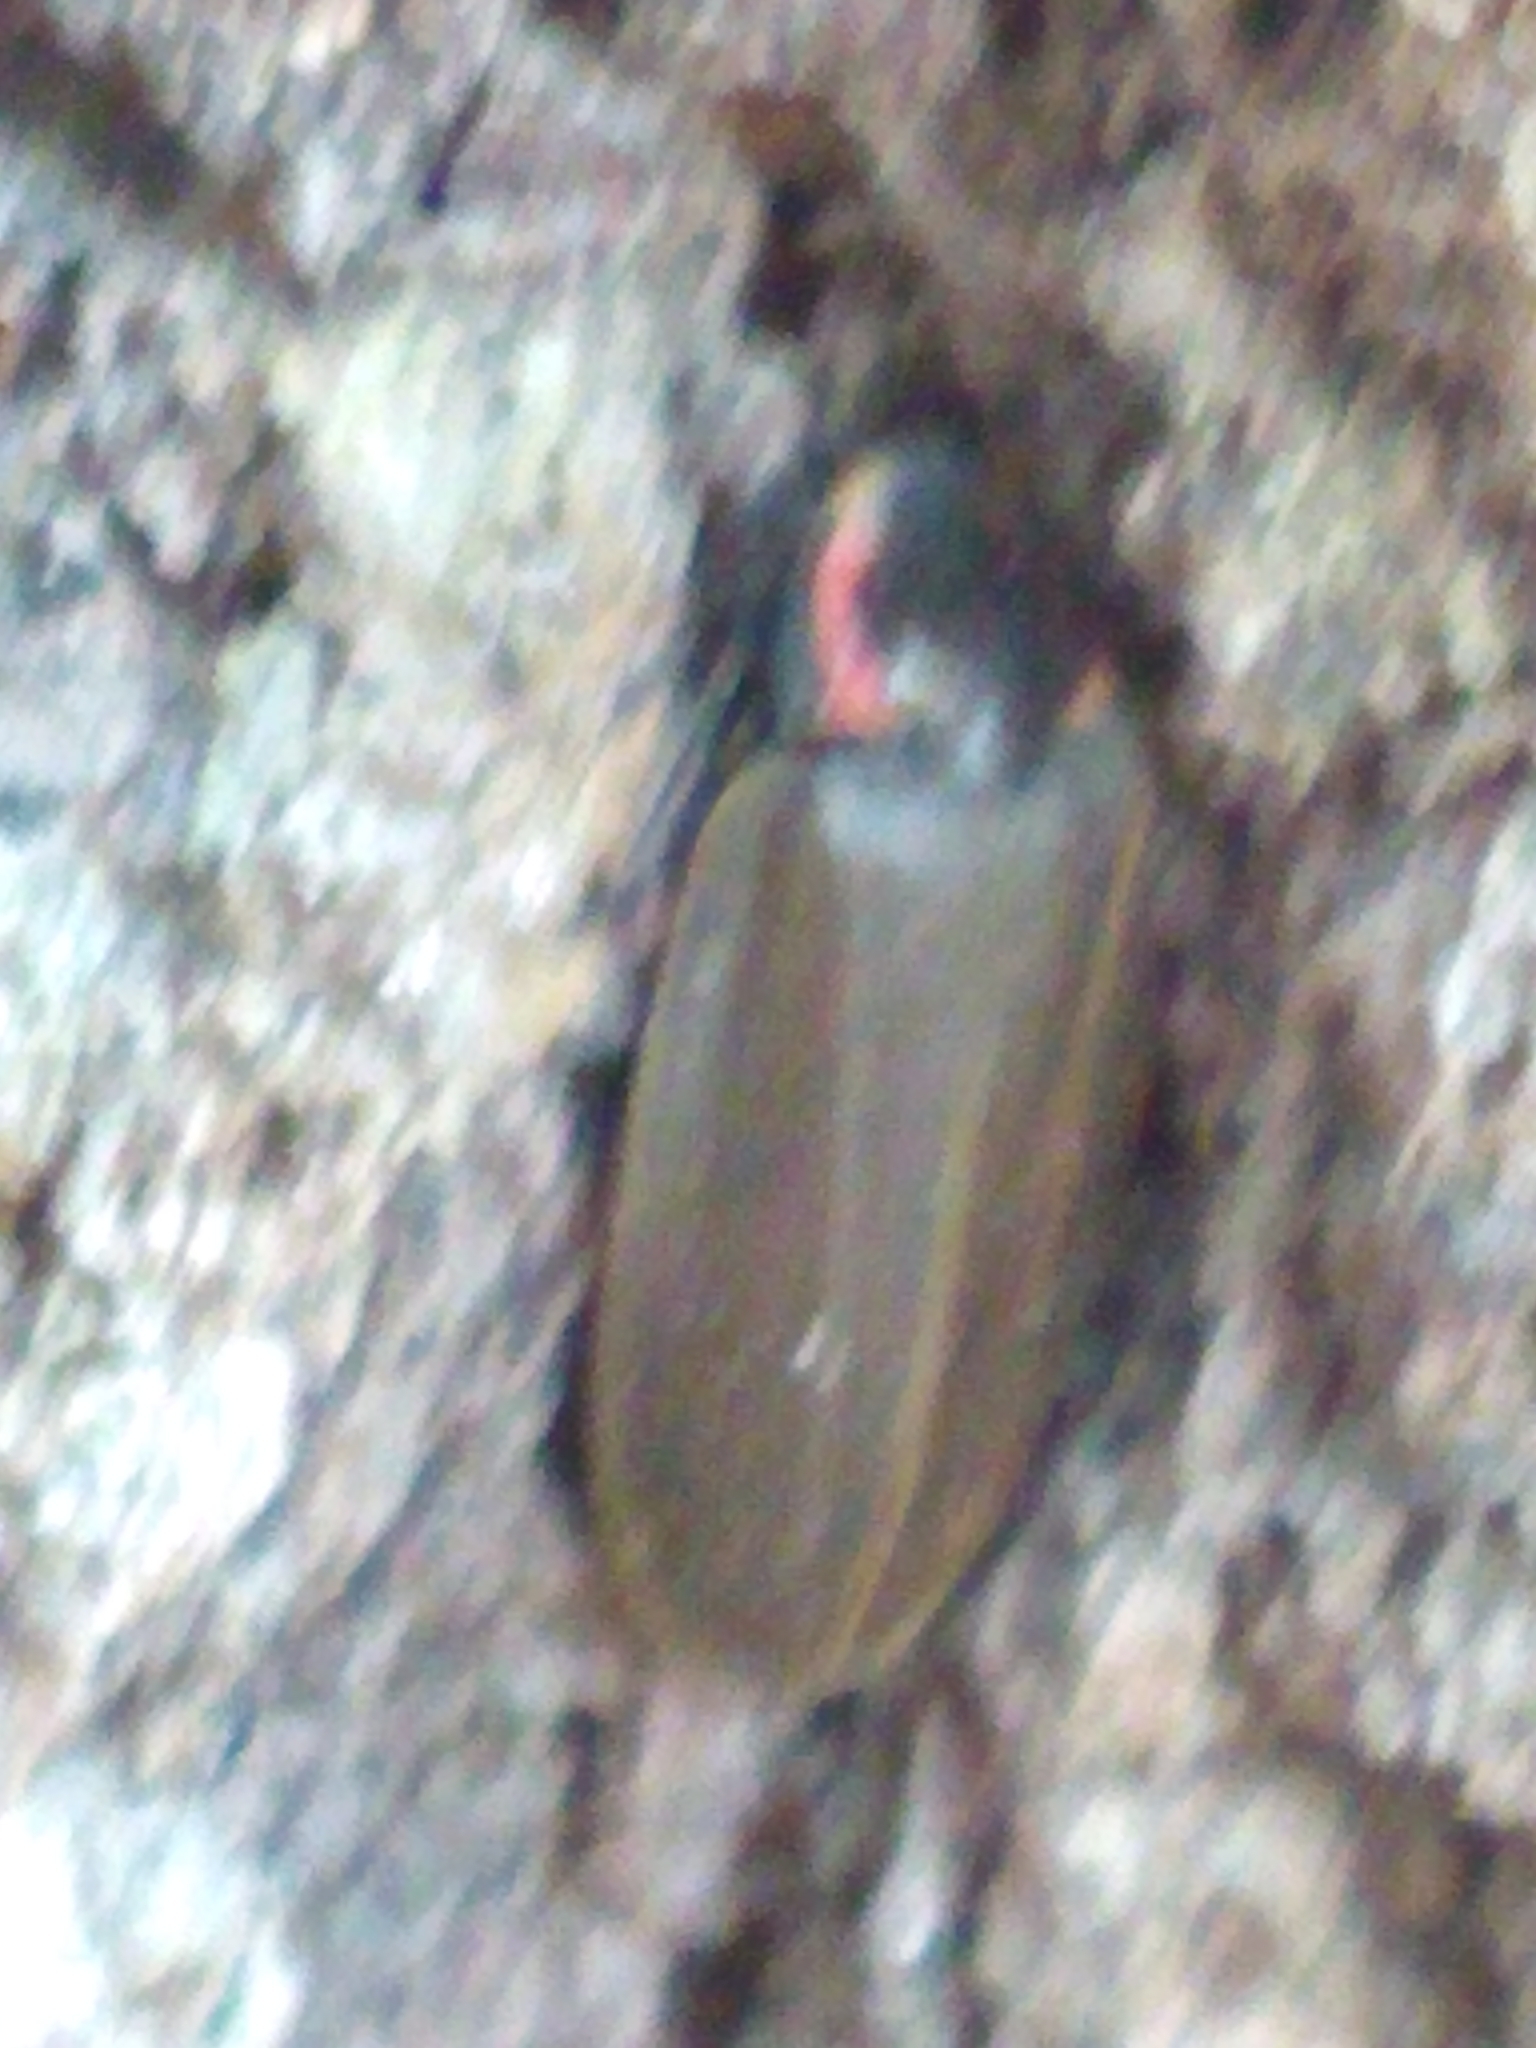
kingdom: Animalia
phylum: Arthropoda
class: Insecta
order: Coleoptera
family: Lampyridae
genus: Photinus
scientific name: Photinus corrusca
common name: Winter firefly
